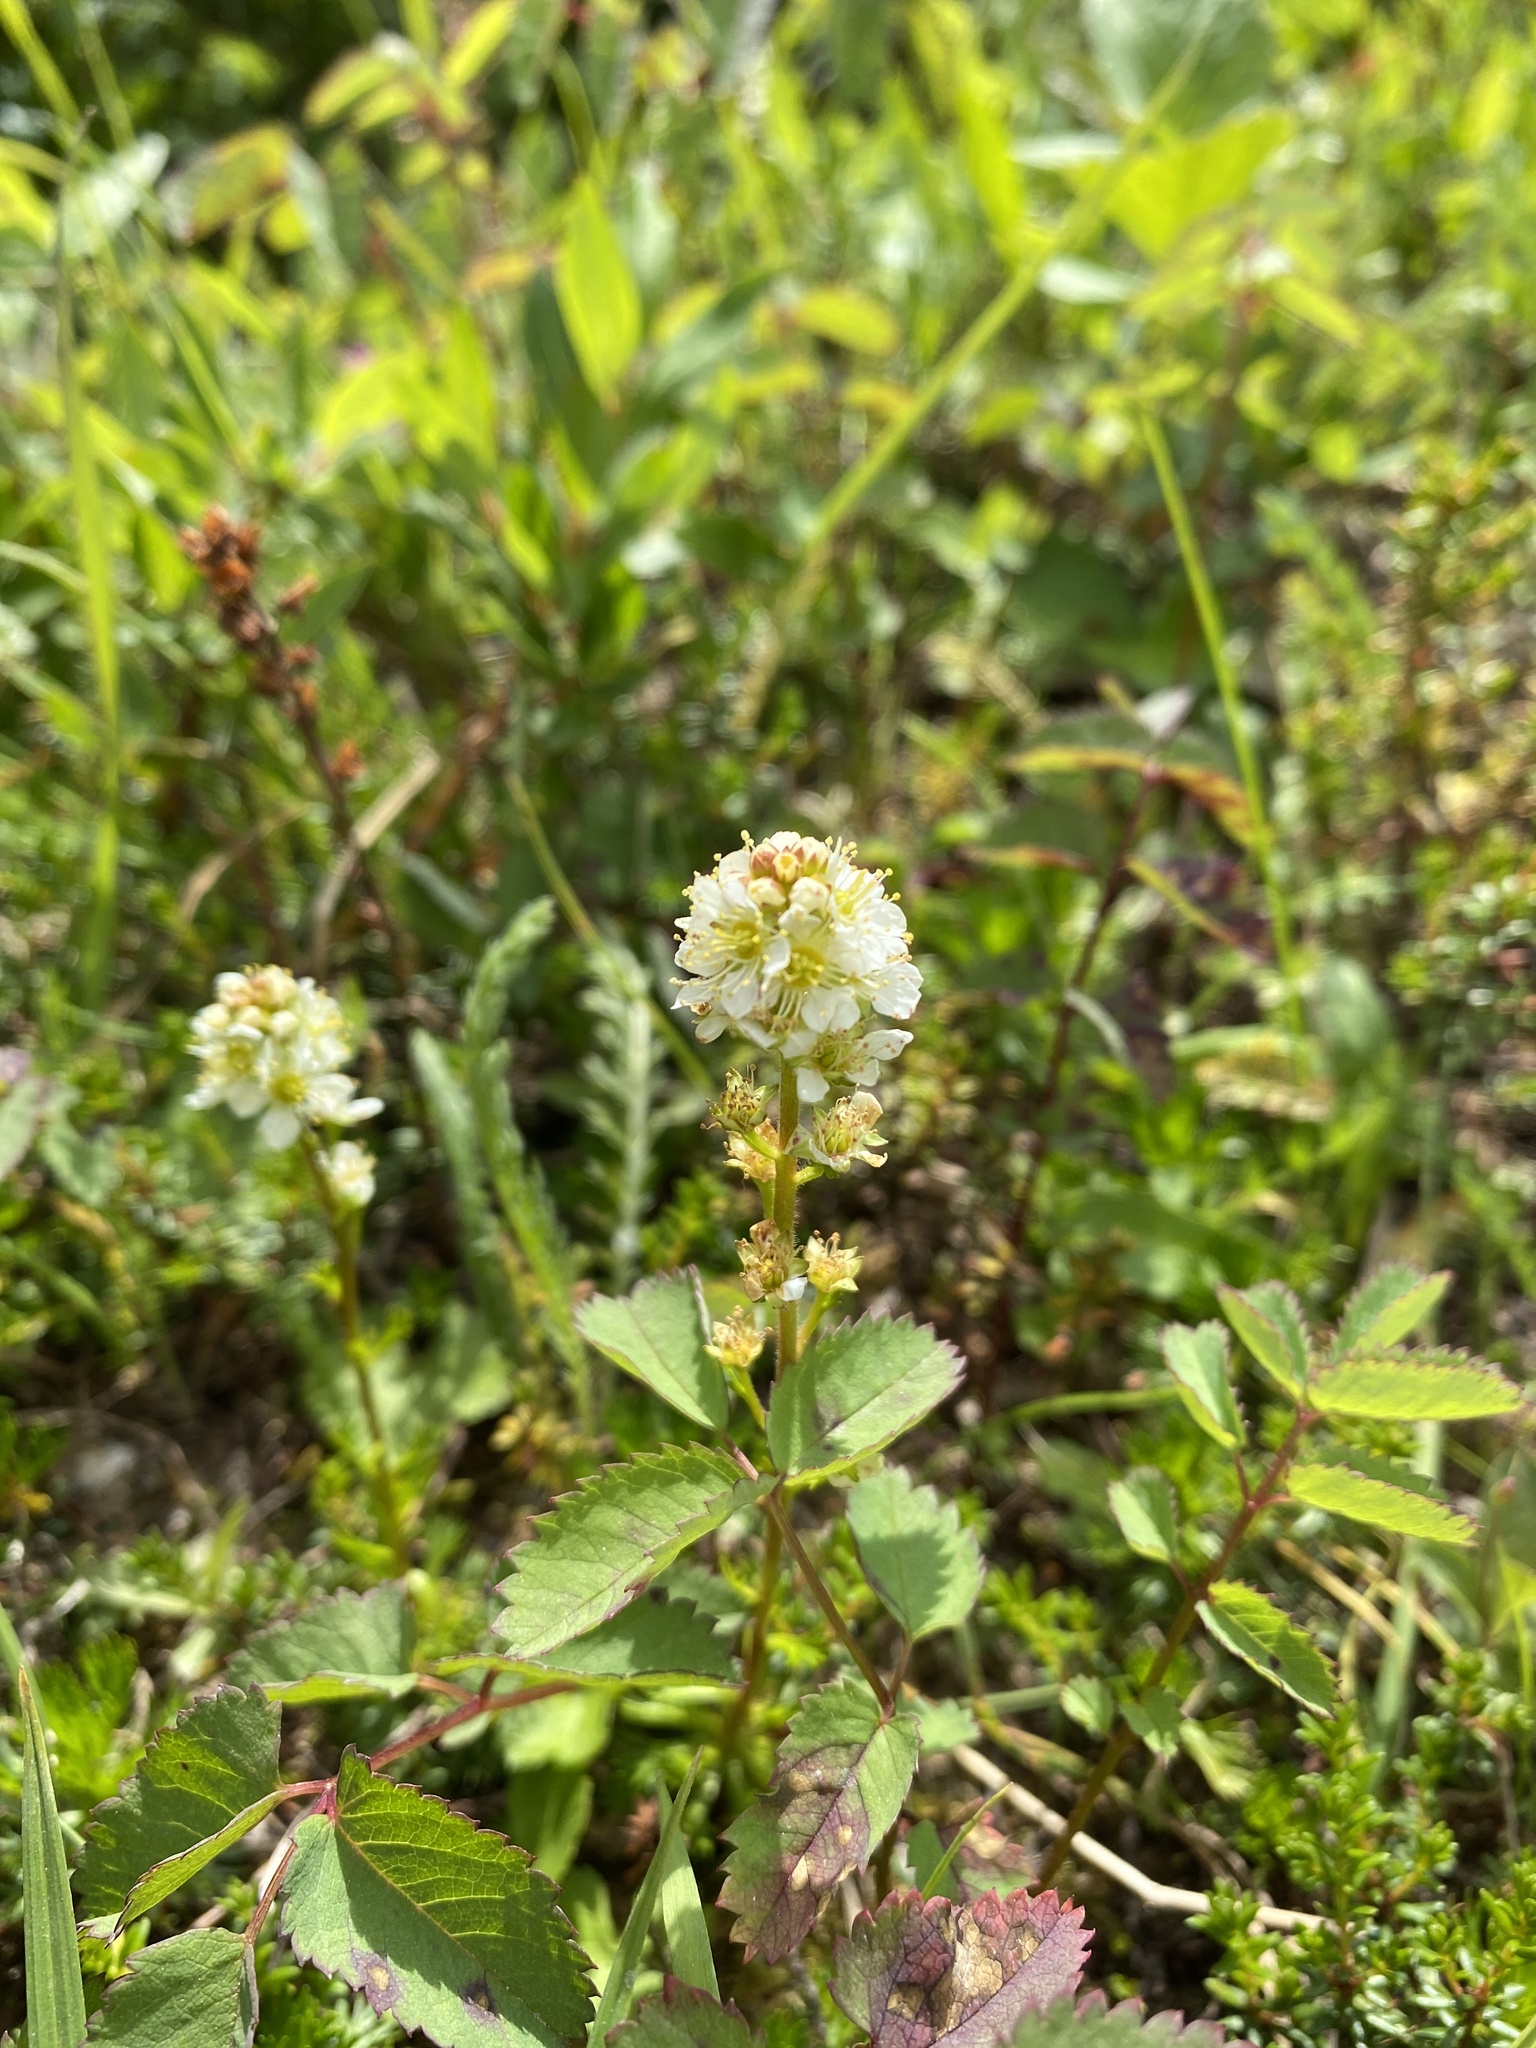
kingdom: Plantae
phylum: Tracheophyta
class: Magnoliopsida
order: Rosales
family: Rosaceae
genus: Luetkea
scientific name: Luetkea pectinata
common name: Partridgefoot
